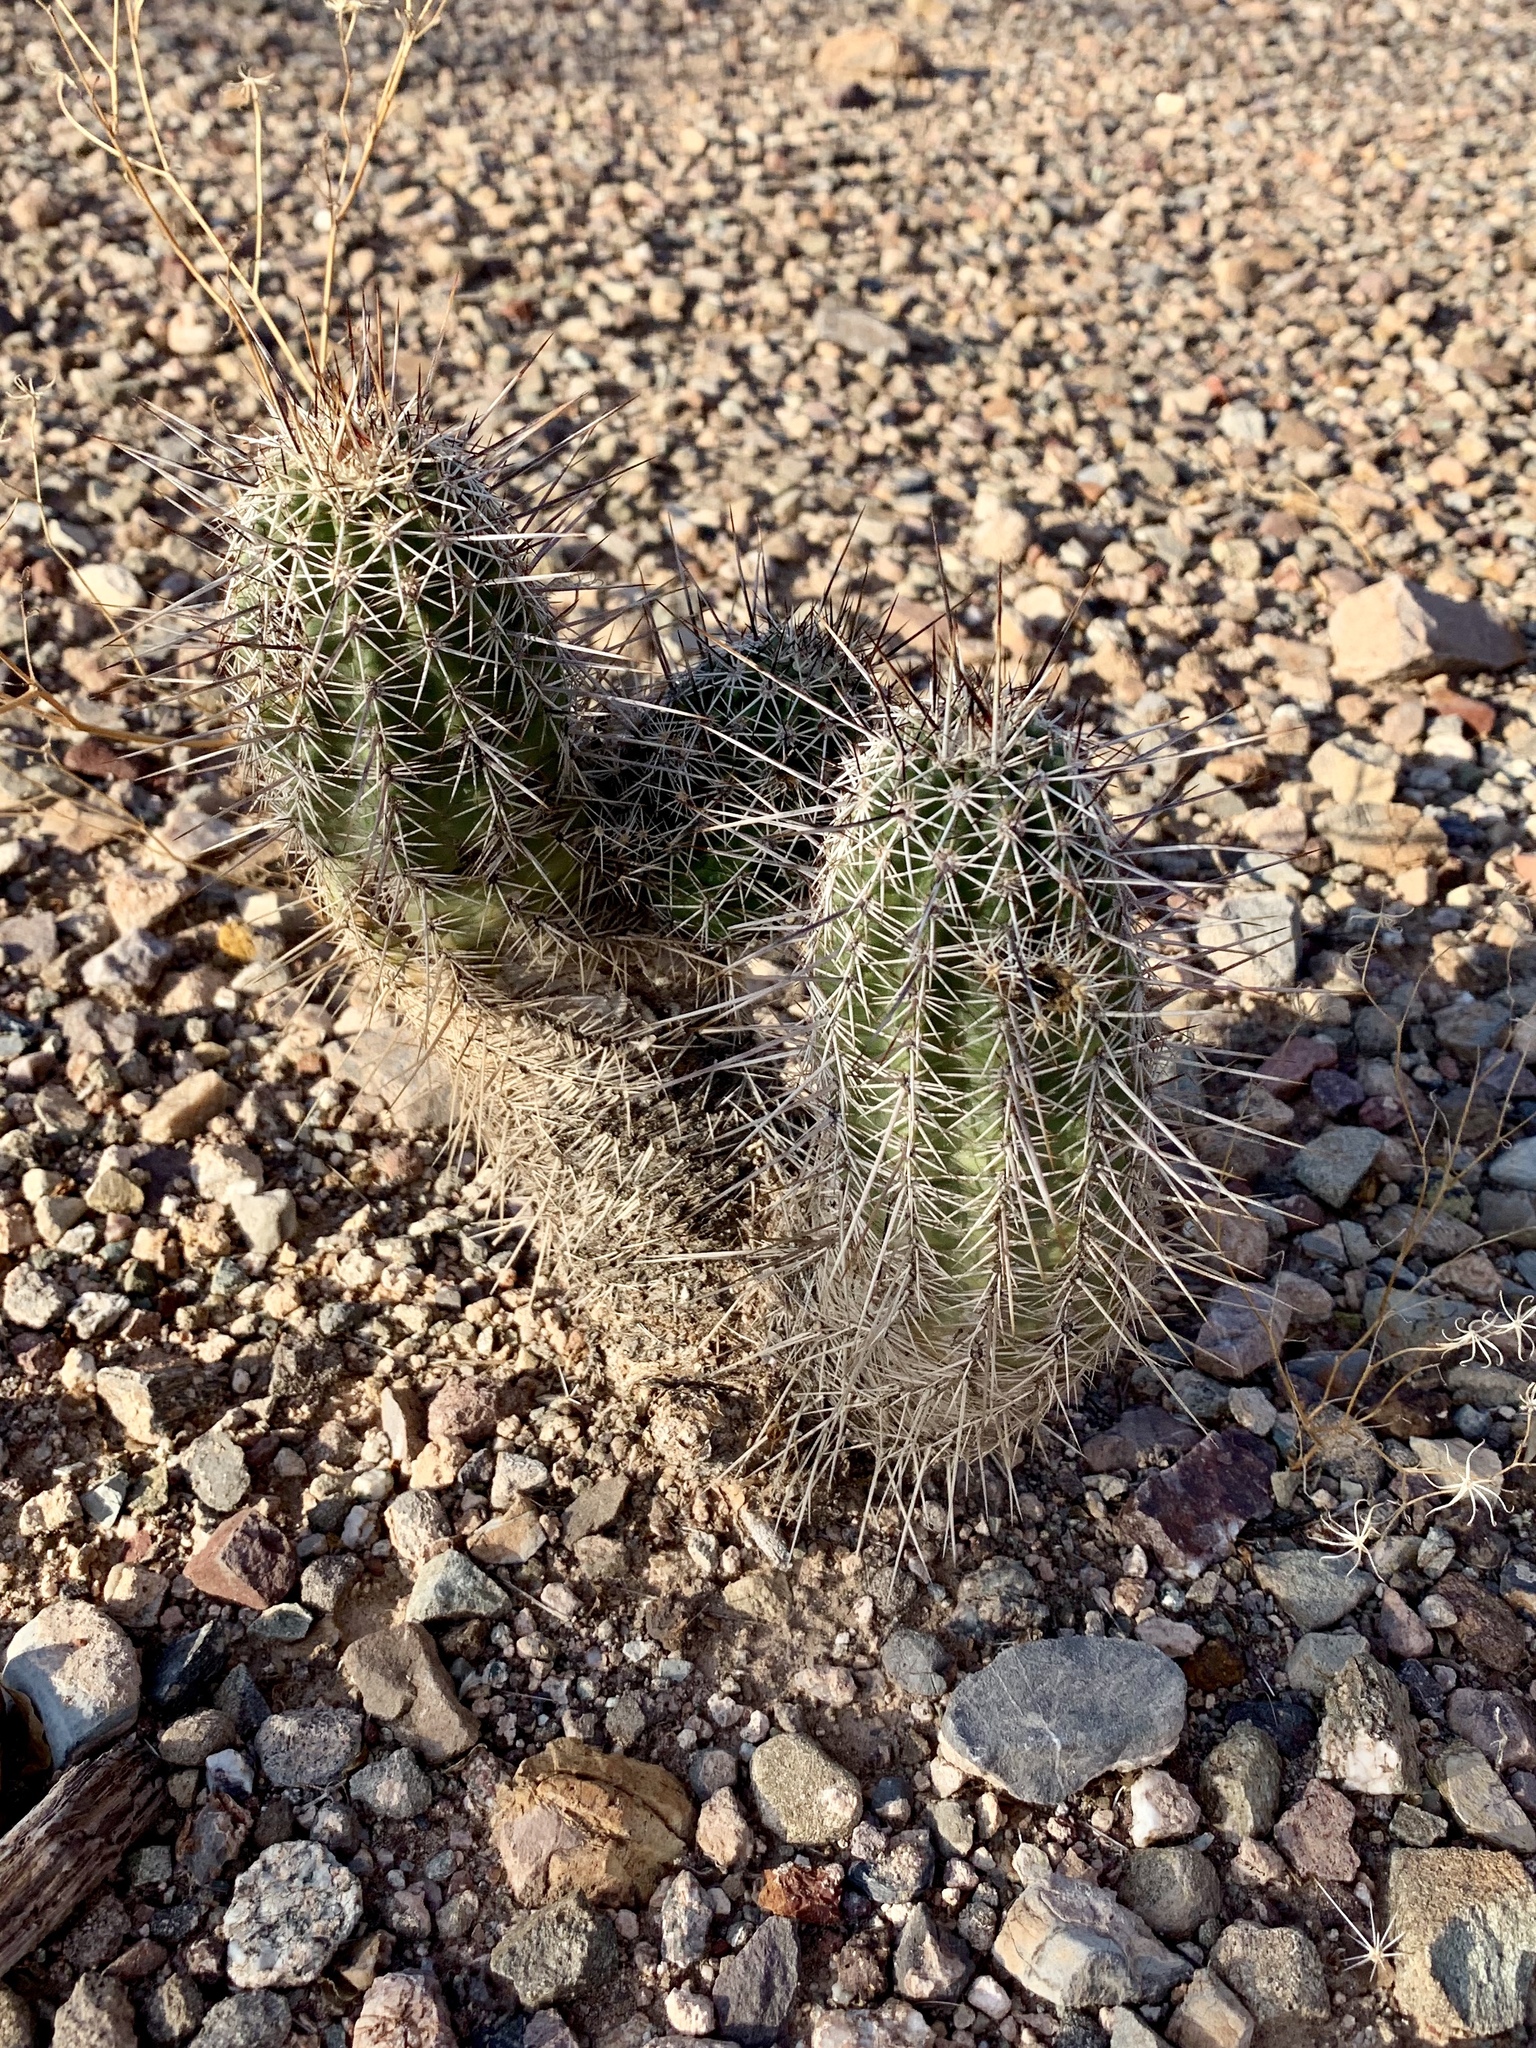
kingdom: Plantae
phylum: Tracheophyta
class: Magnoliopsida
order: Caryophyllales
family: Cactaceae
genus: Echinocereus
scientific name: Echinocereus fasciculatus
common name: Bundle hedgehog
